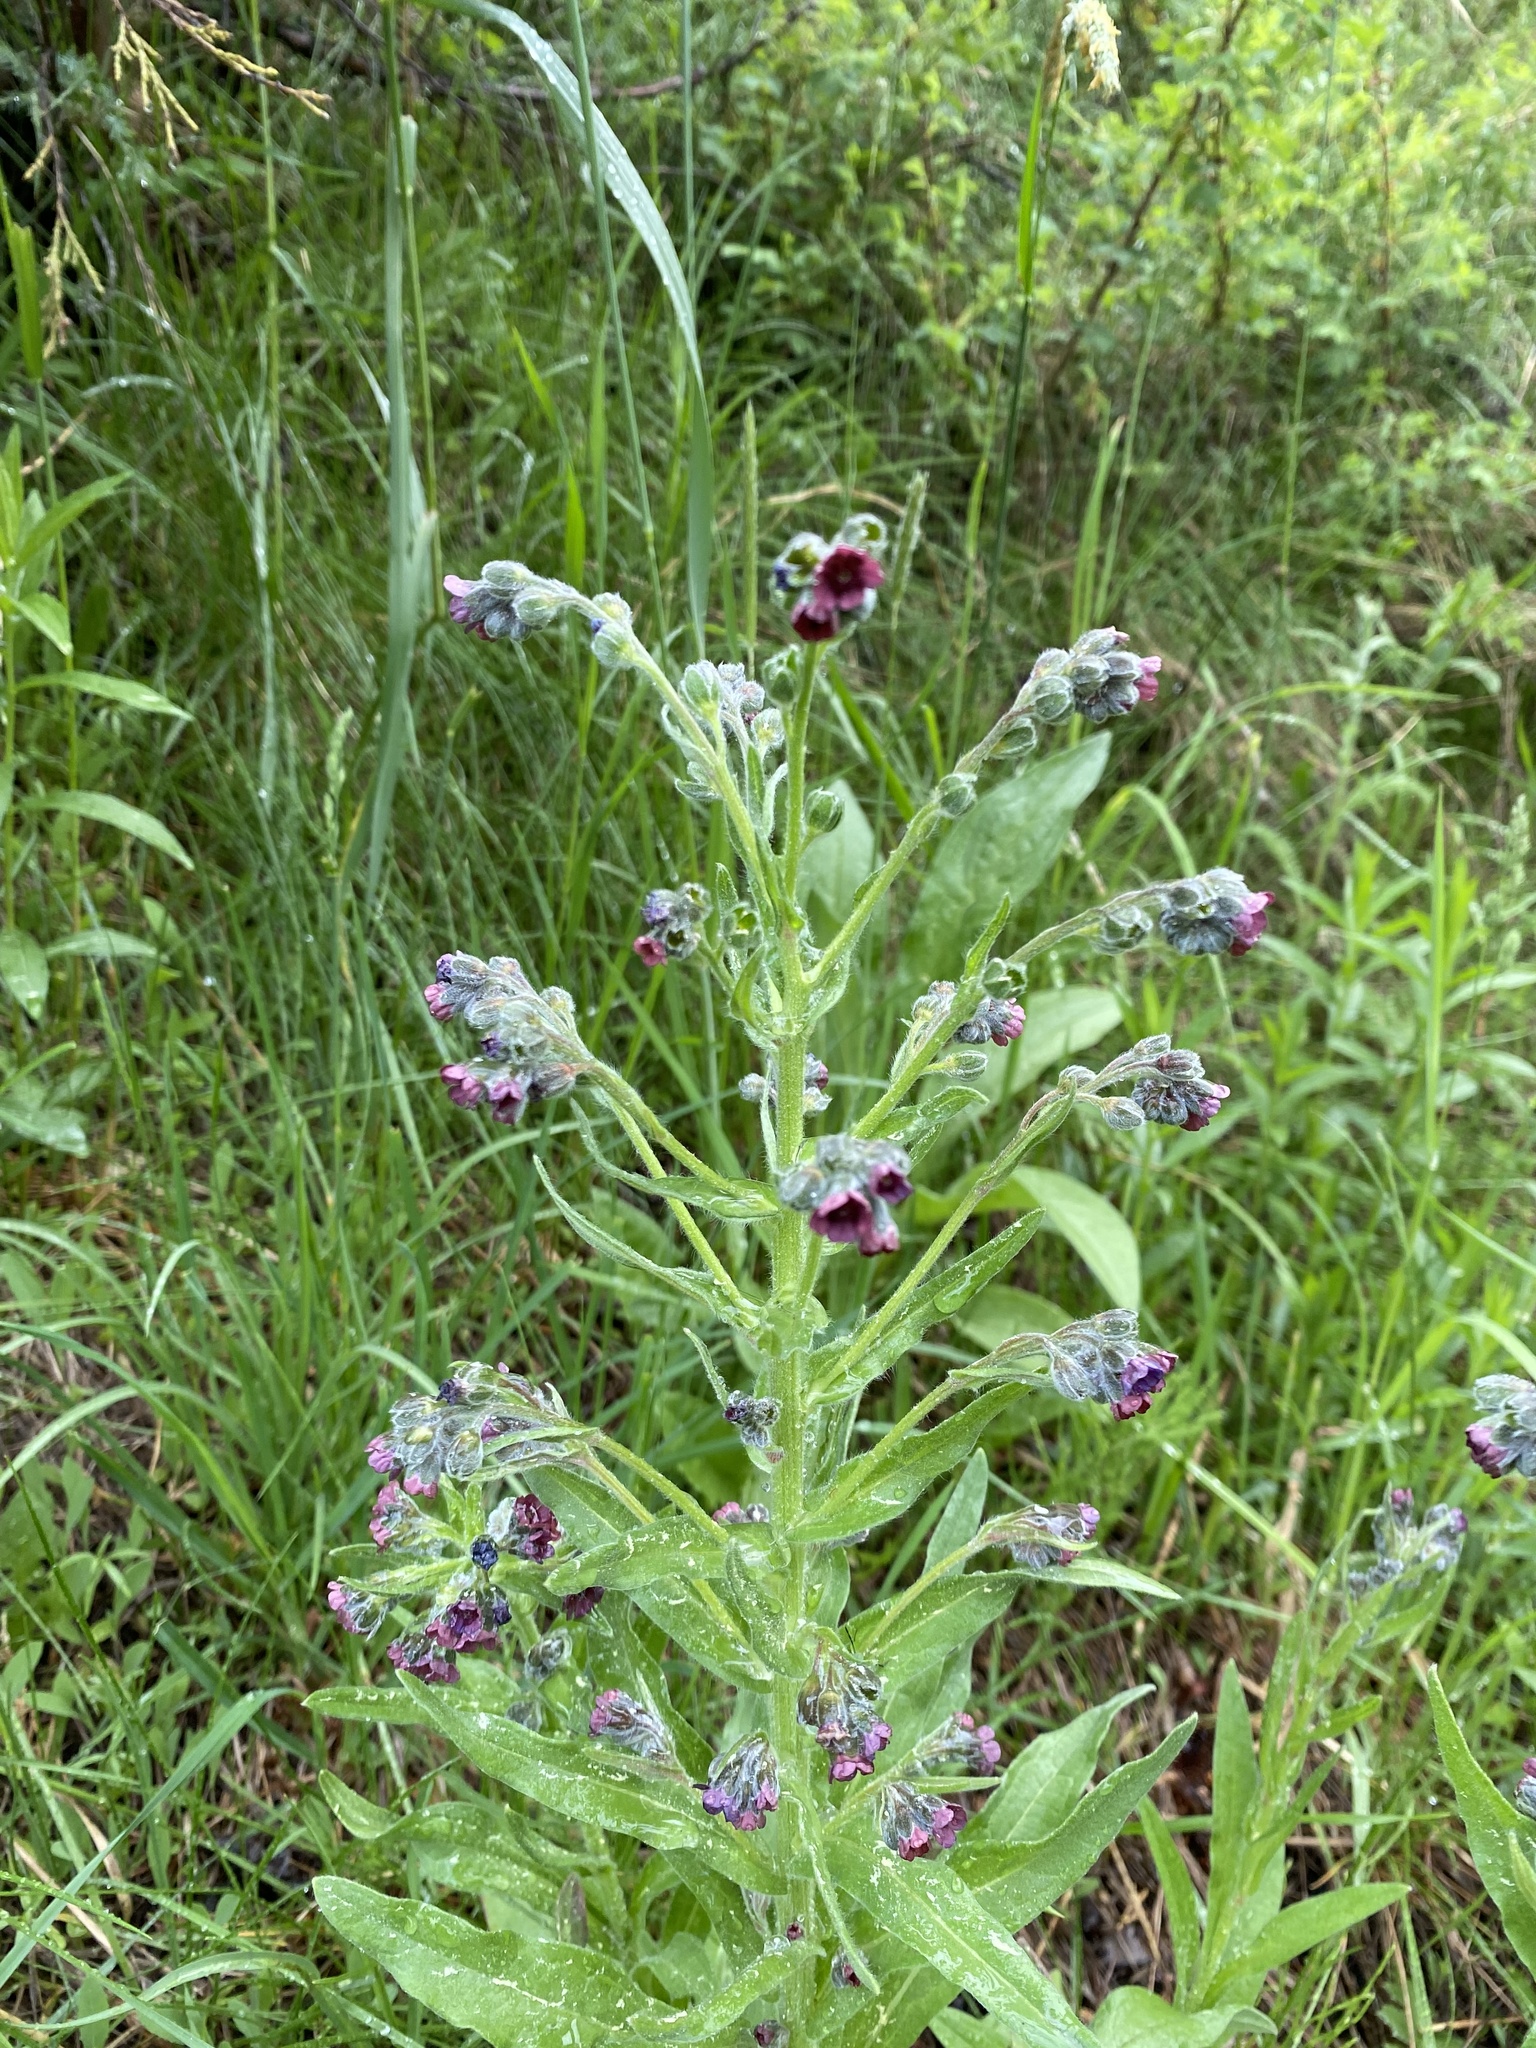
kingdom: Plantae
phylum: Tracheophyta
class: Magnoliopsida
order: Boraginales
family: Boraginaceae
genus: Cynoglossum
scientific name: Cynoglossum officinale
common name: Hound's-tongue
